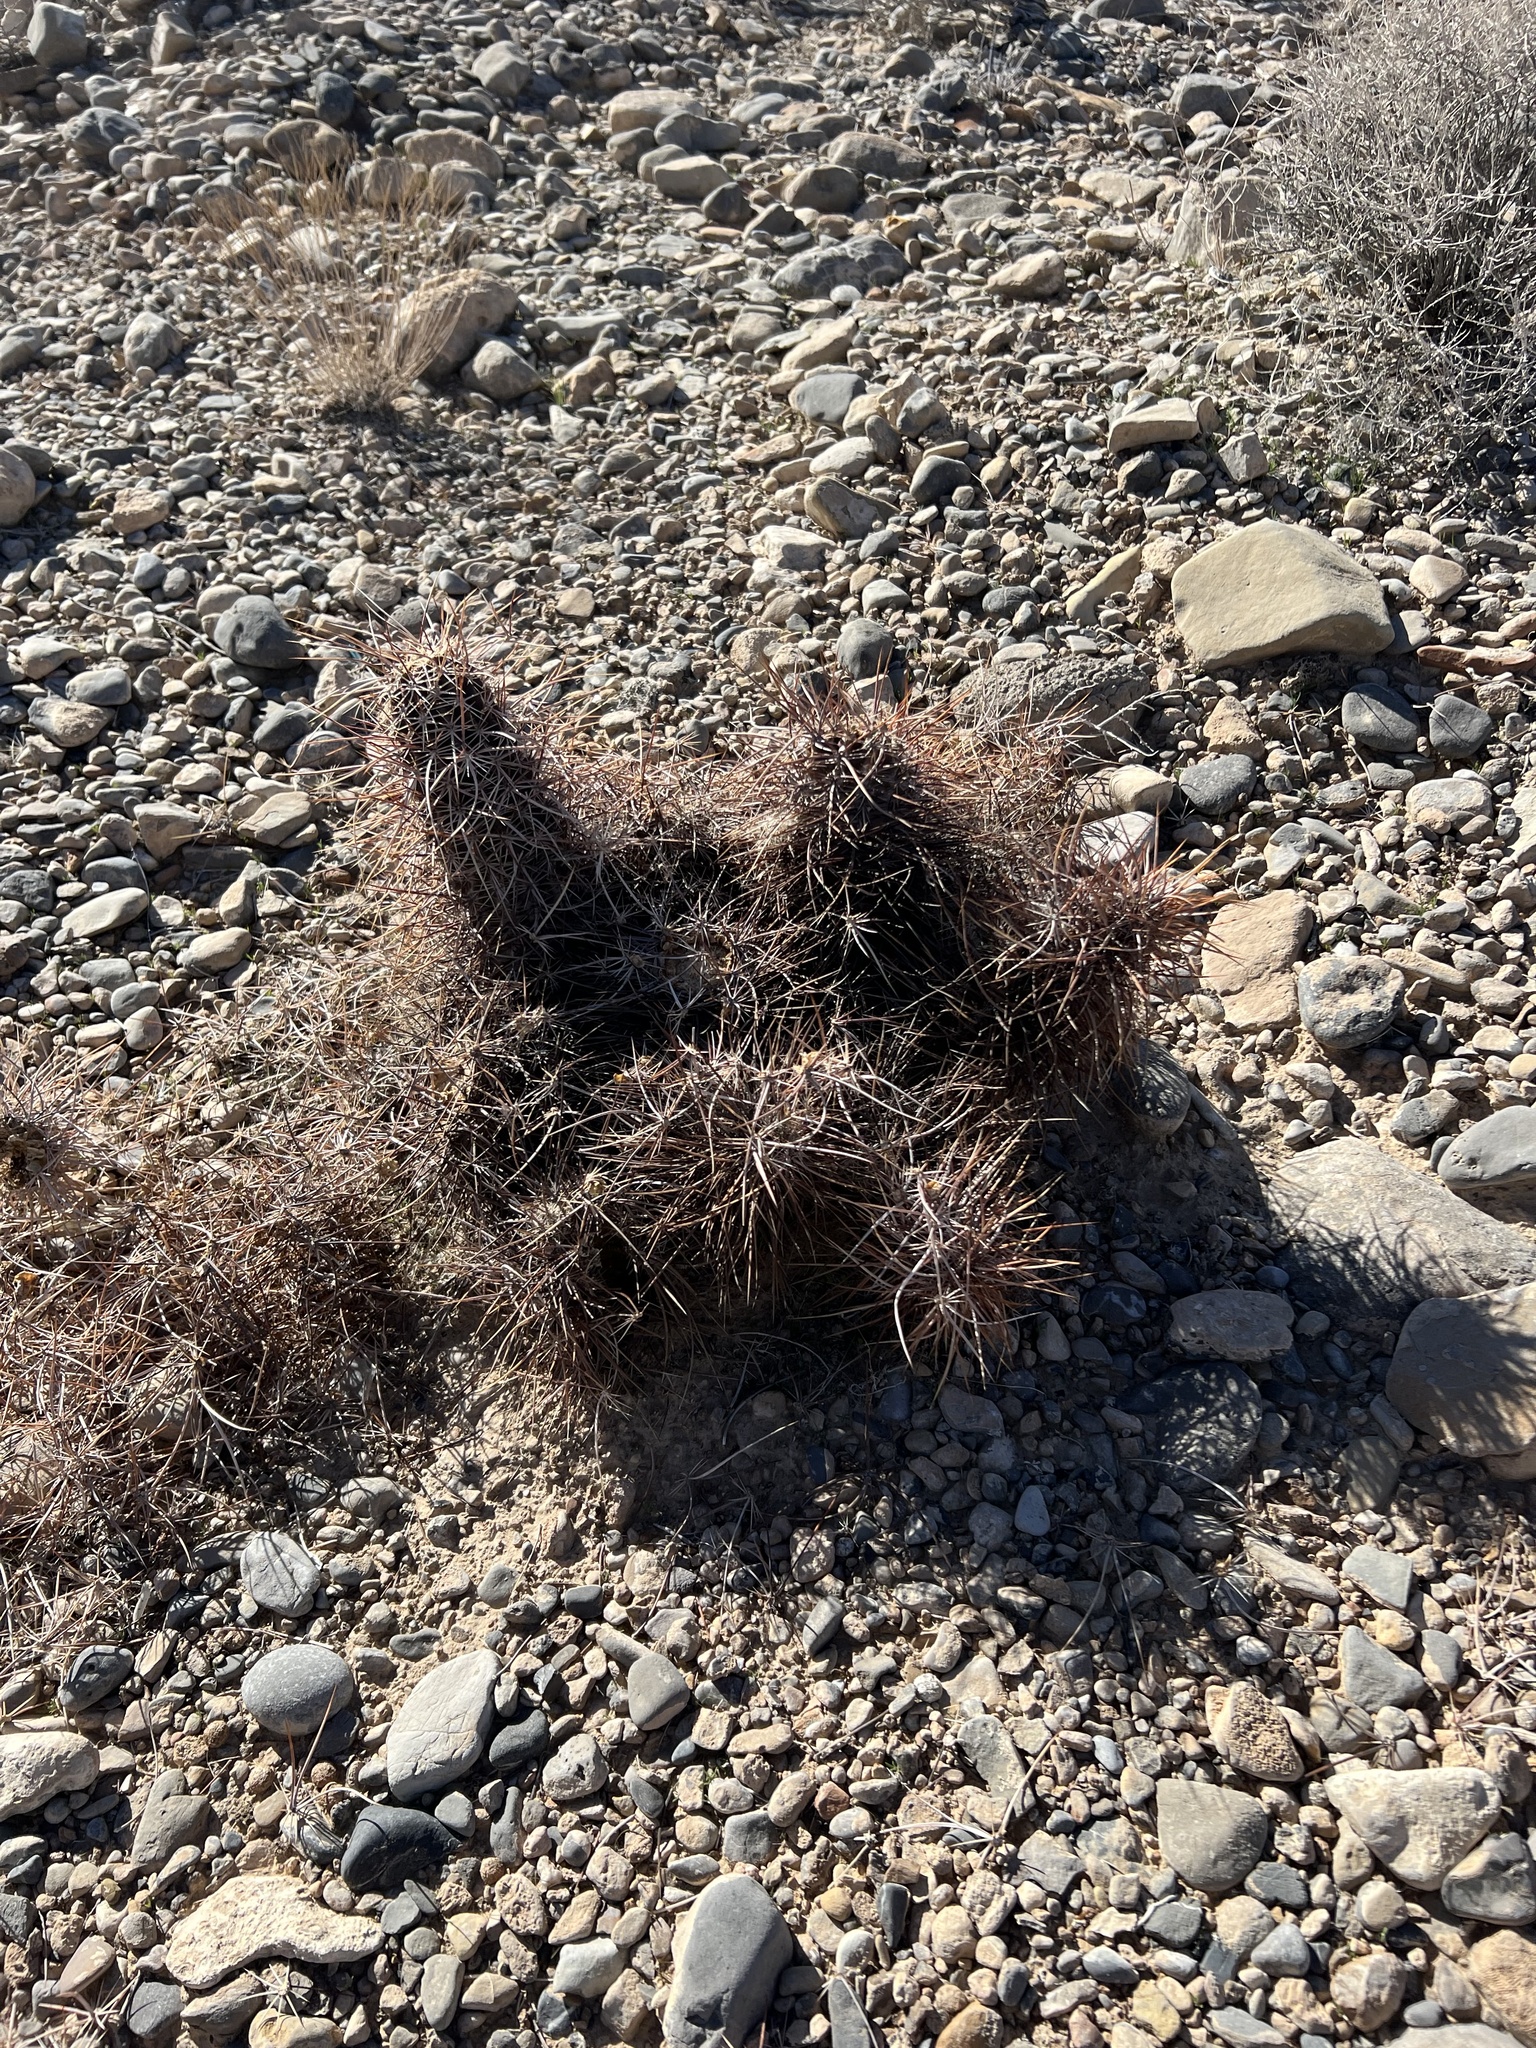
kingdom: Plantae
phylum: Tracheophyta
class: Magnoliopsida
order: Caryophyllales
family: Cactaceae
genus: Echinocereus
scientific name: Echinocereus engelmannii
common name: Engelmann's hedgehog cactus
